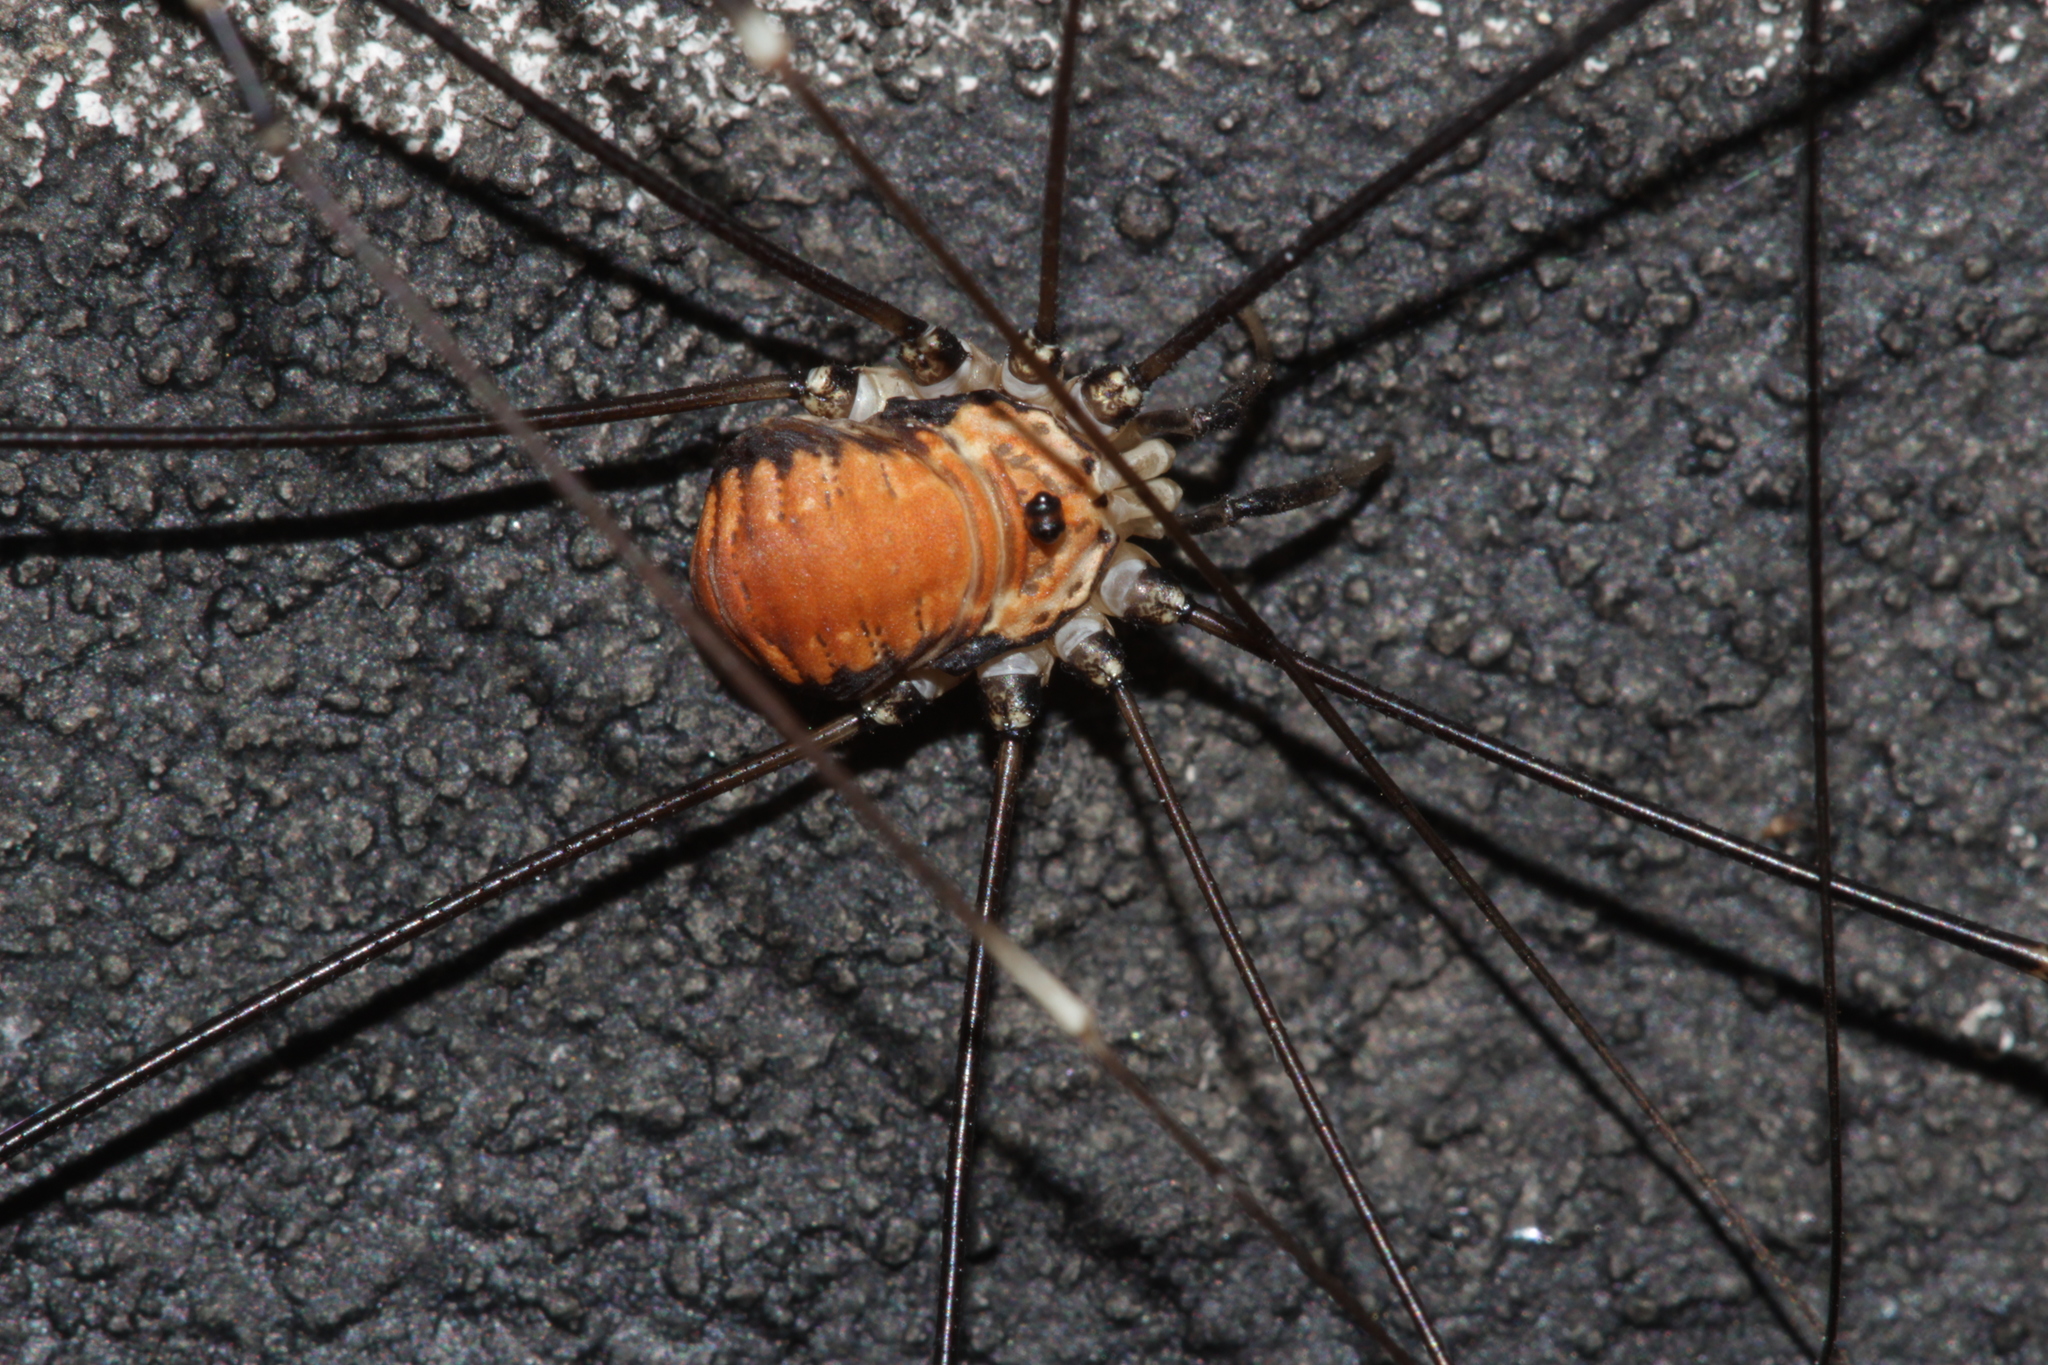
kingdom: Animalia
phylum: Arthropoda
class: Arachnida
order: Opiliones
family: Sclerosomatidae
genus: Leiobunum
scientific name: Leiobunum limbatum
